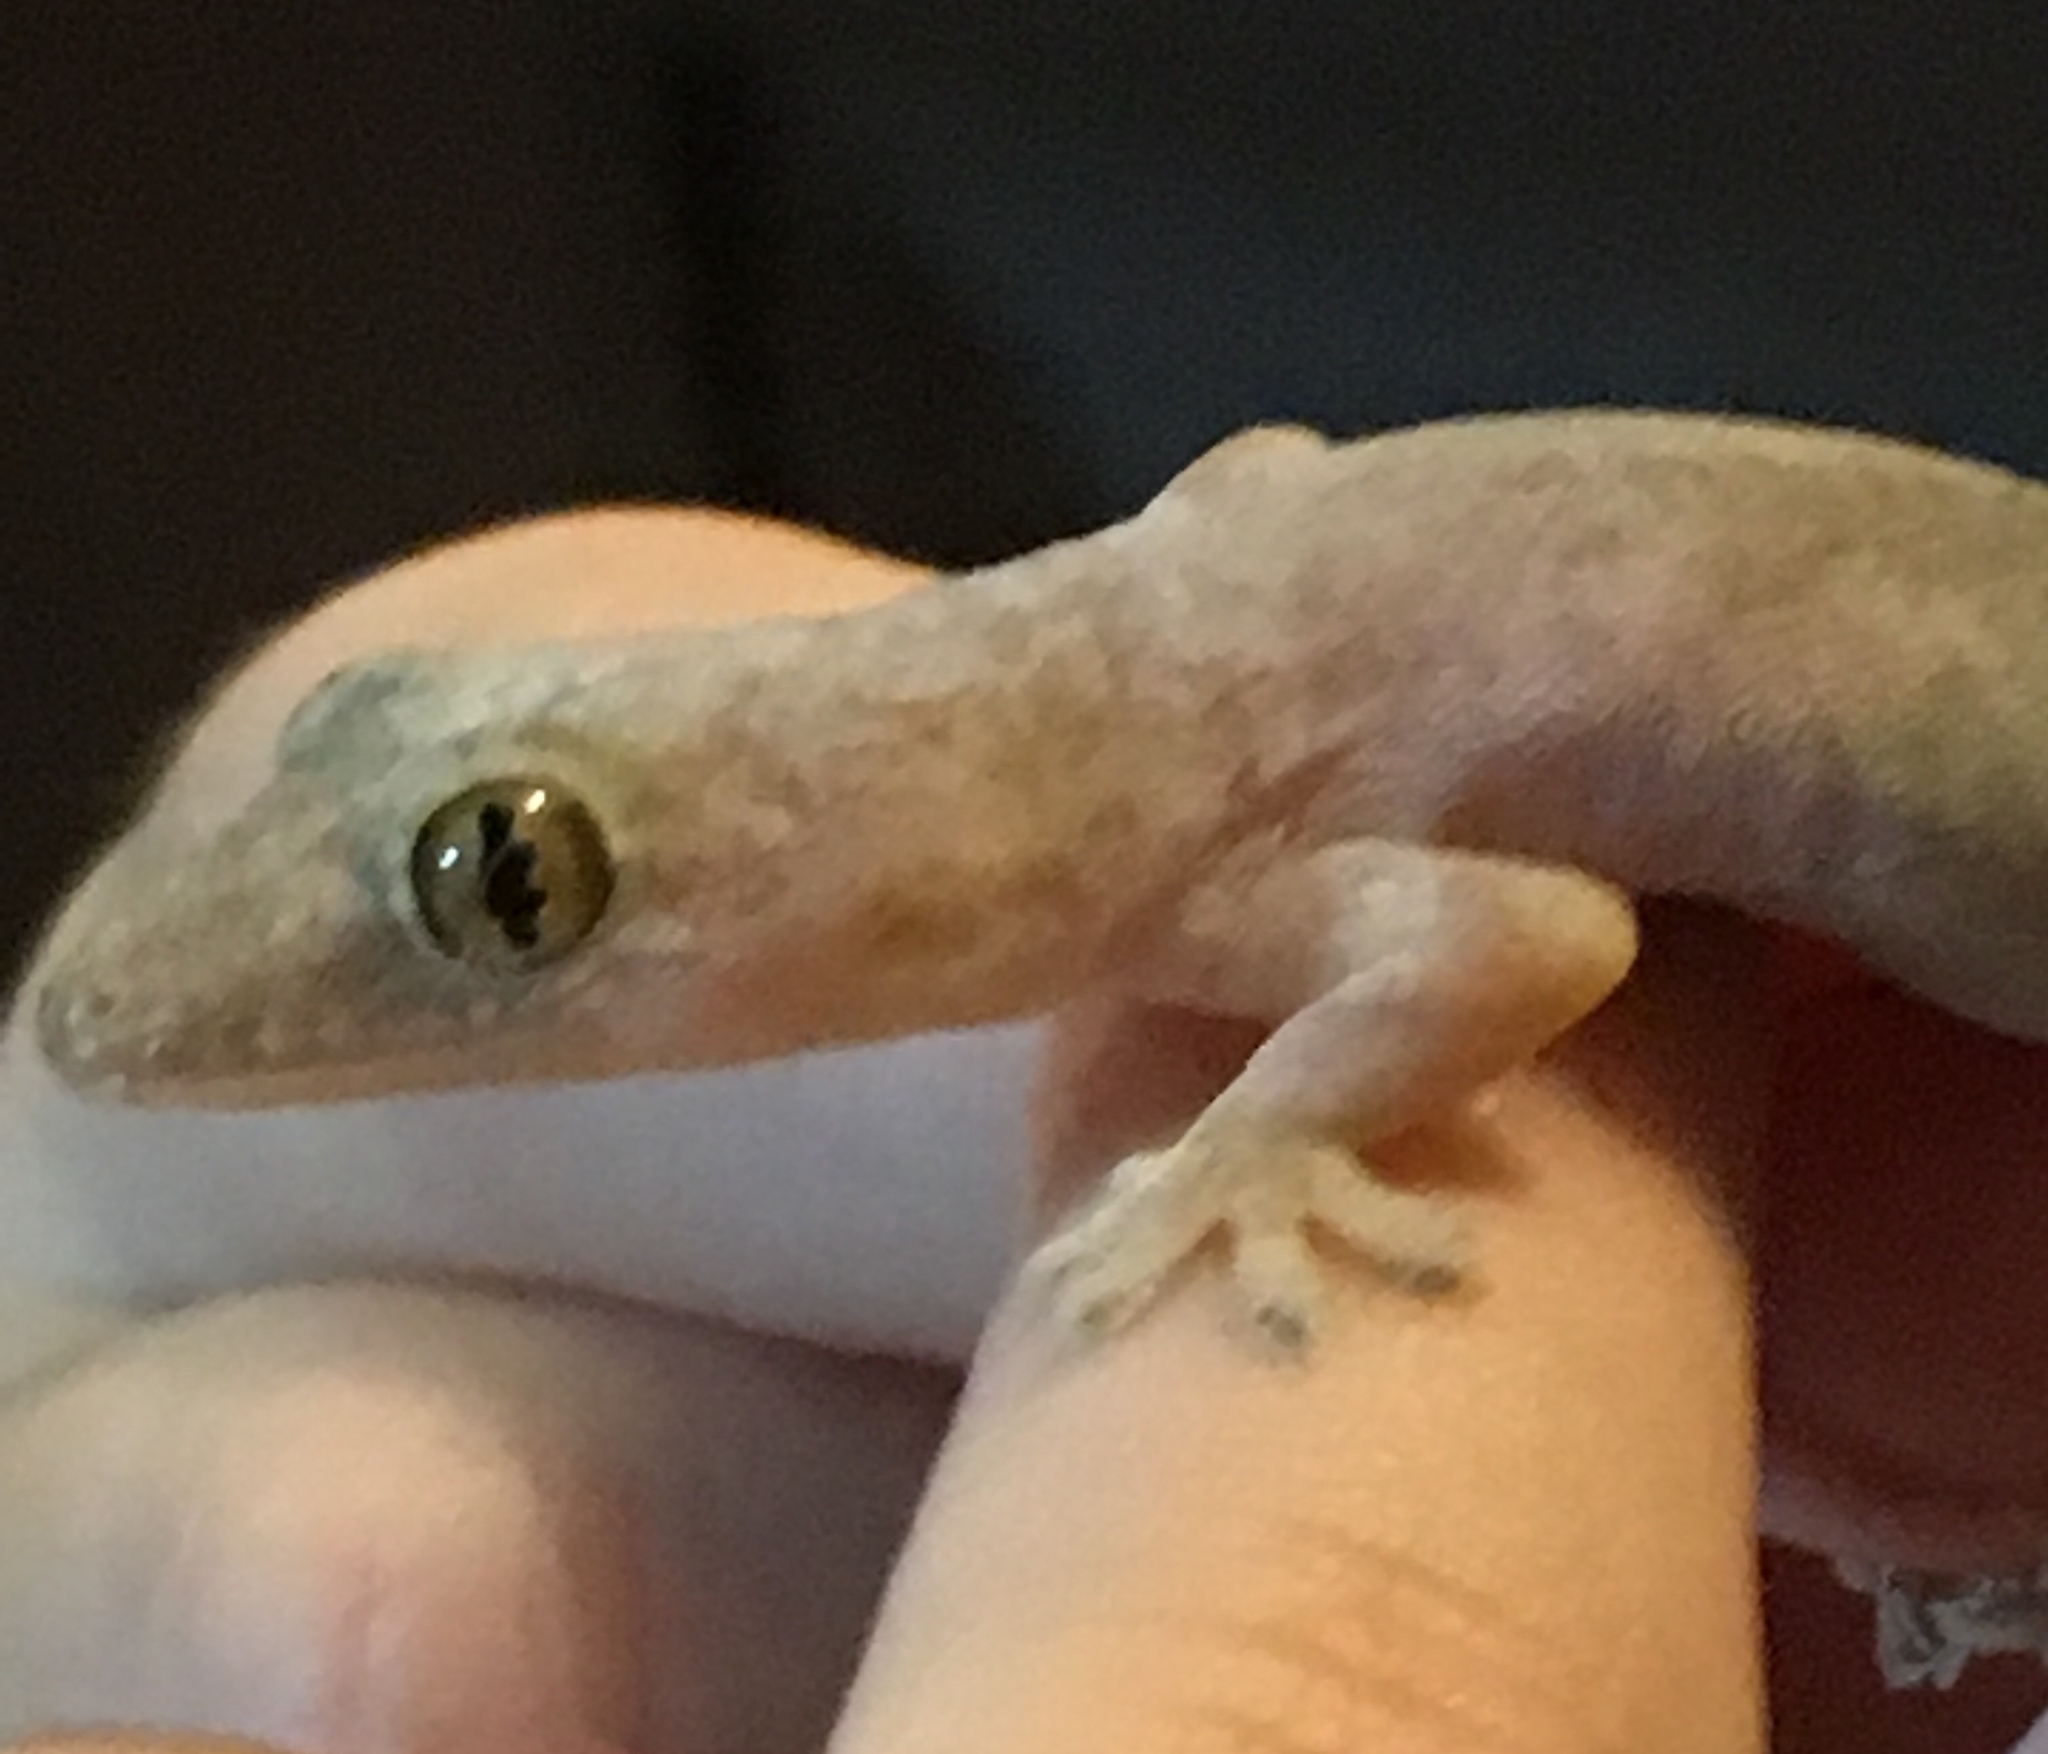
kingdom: Animalia
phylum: Chordata
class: Squamata
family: Gekkonidae
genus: Hemidactylus
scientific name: Hemidactylus frenatus
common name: Common house gecko
